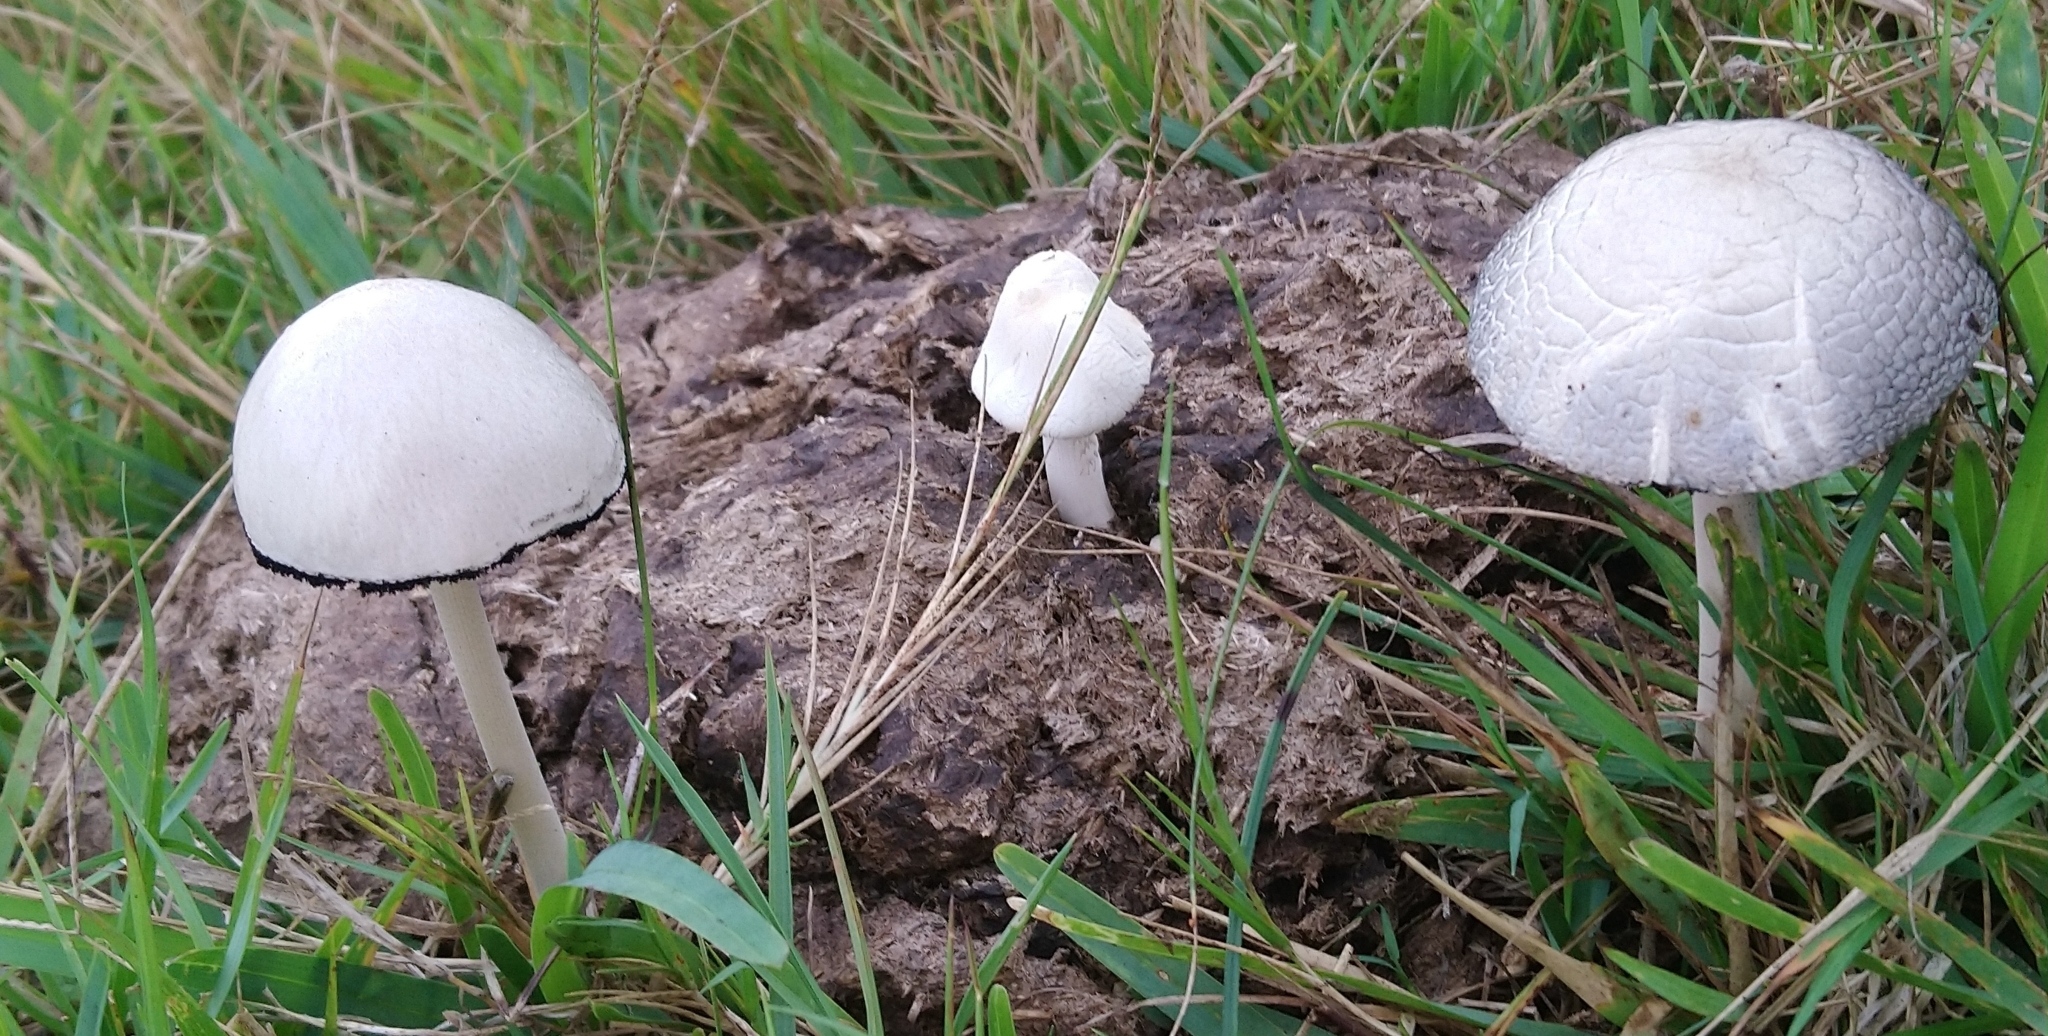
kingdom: Fungi
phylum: Basidiomycota
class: Agaricomycetes
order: Agaricales
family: Bolbitiaceae
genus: Panaeolus
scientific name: Panaeolus antillarum
